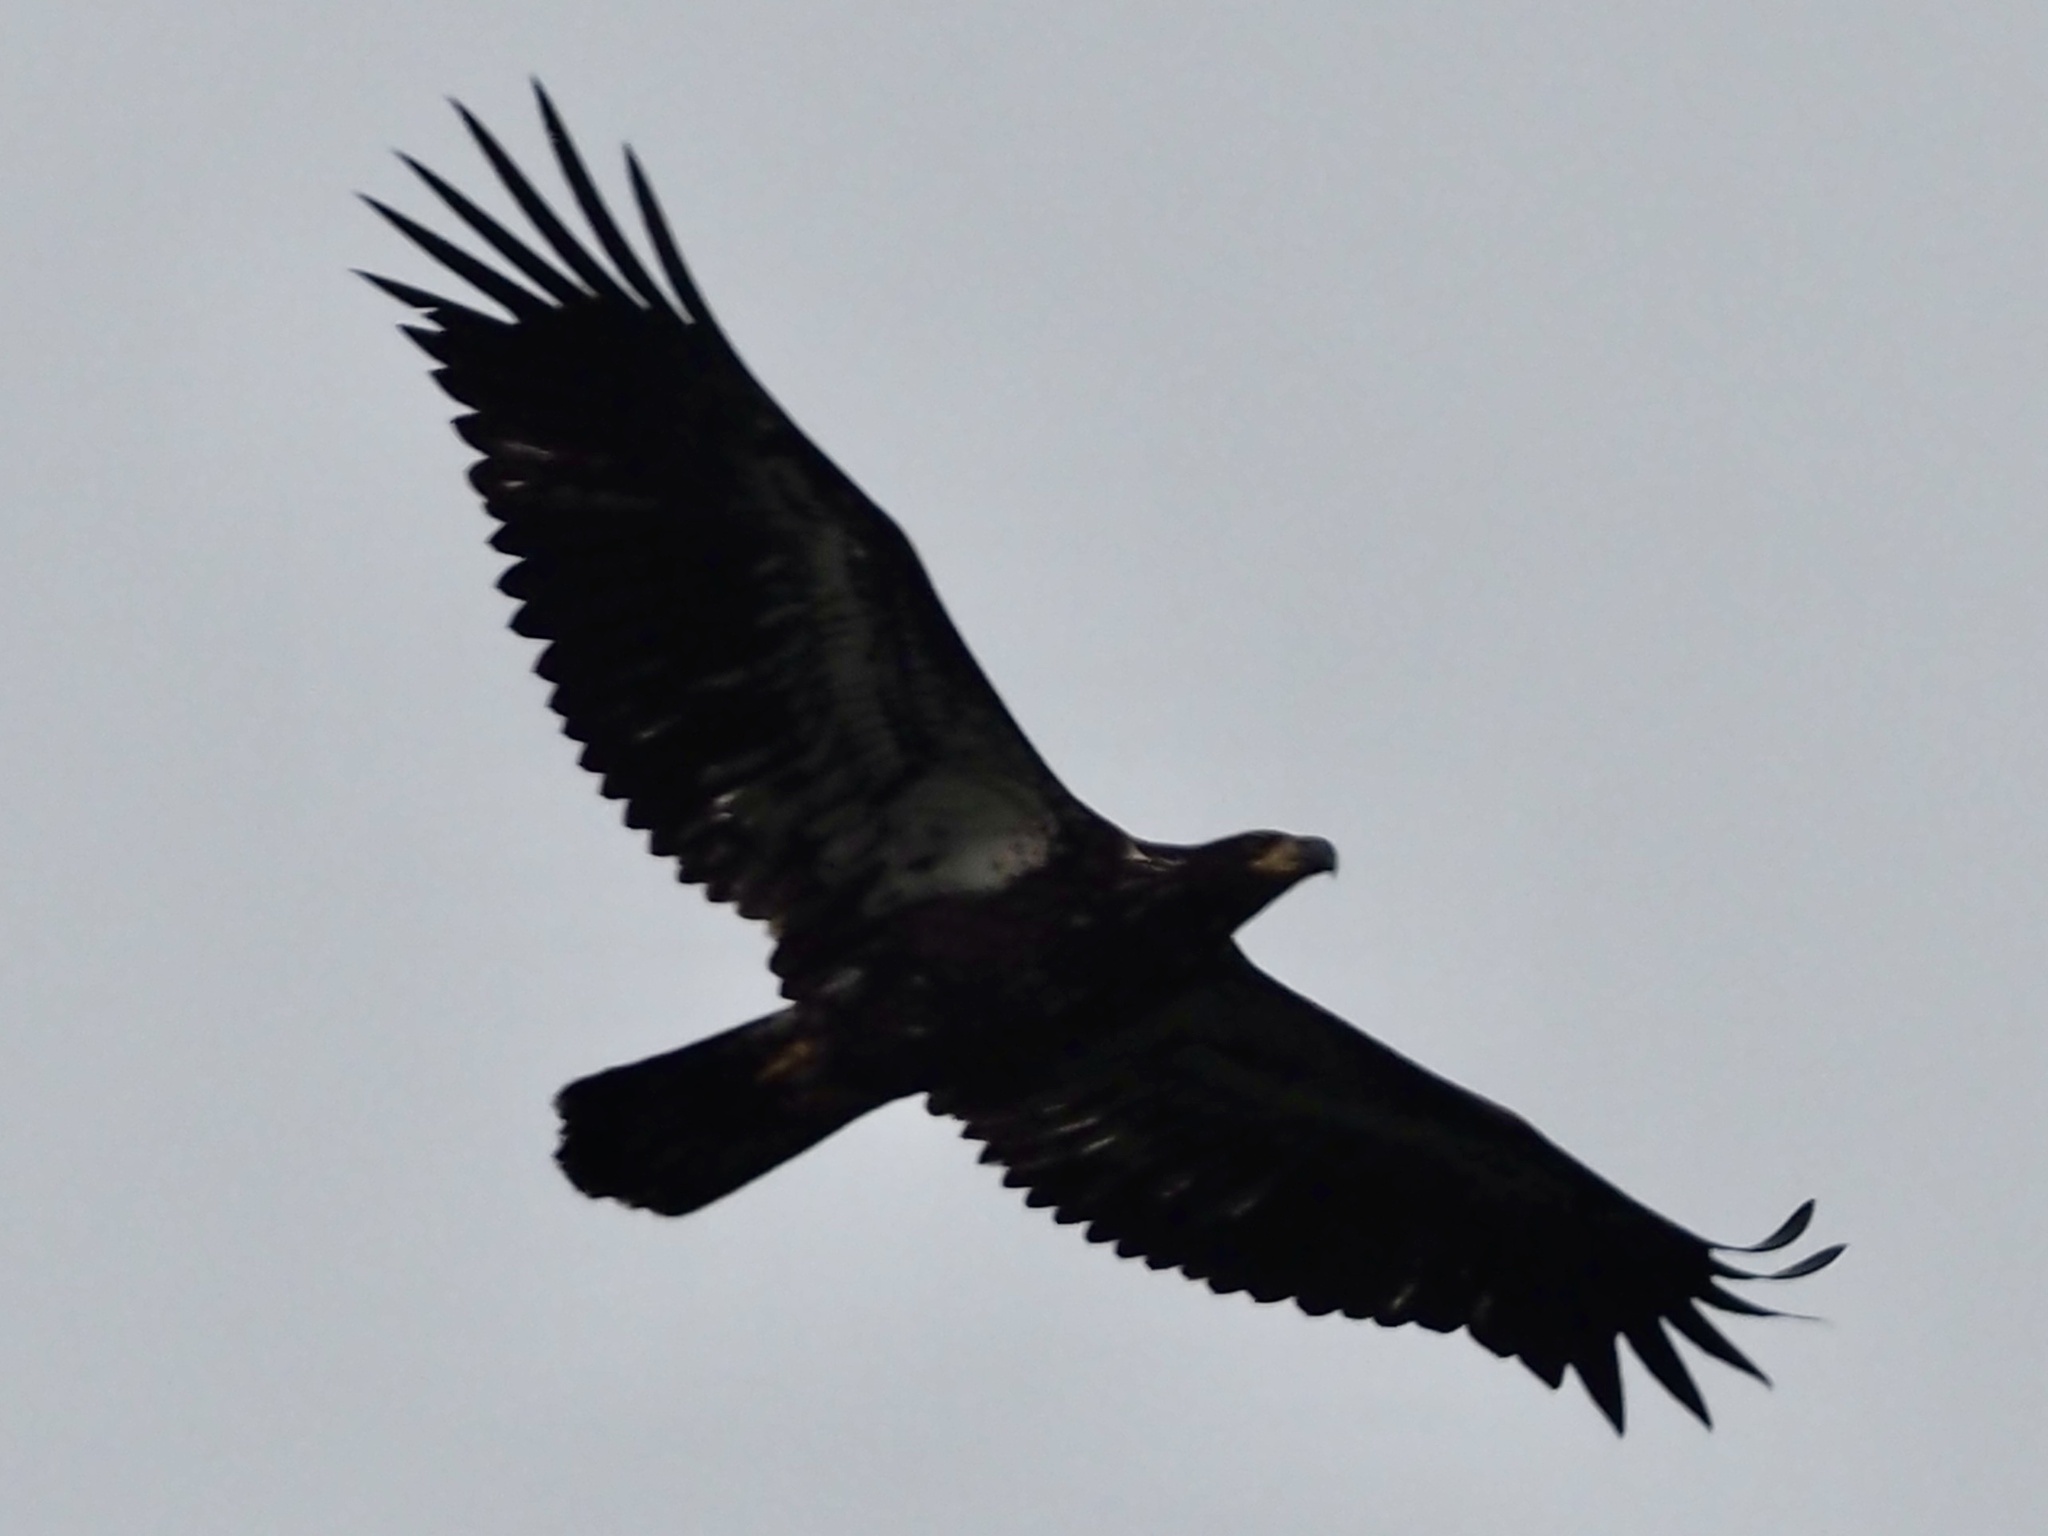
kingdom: Animalia
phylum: Chordata
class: Aves
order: Accipitriformes
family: Accipitridae
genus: Haliaeetus
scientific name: Haliaeetus leucocephalus
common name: Bald eagle
